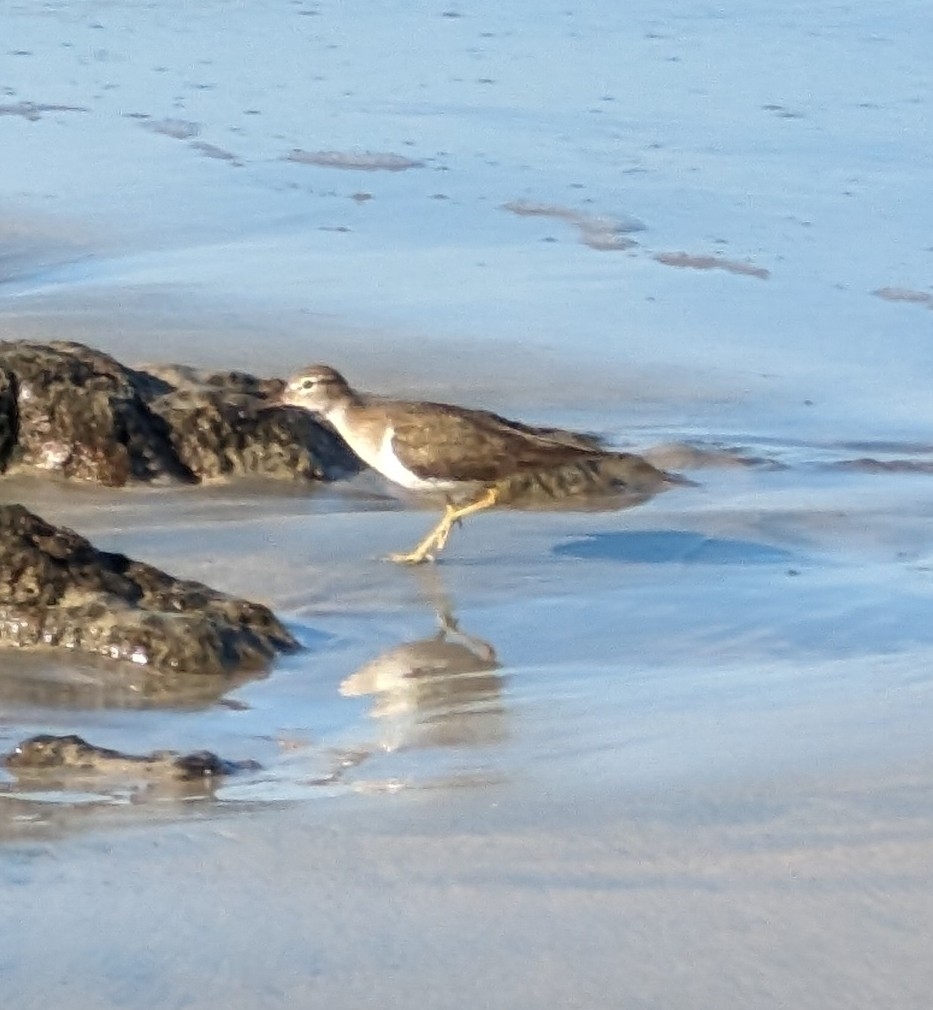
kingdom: Animalia
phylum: Chordata
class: Aves
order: Charadriiformes
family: Scolopacidae
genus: Actitis
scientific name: Actitis macularius
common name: Spotted sandpiper
